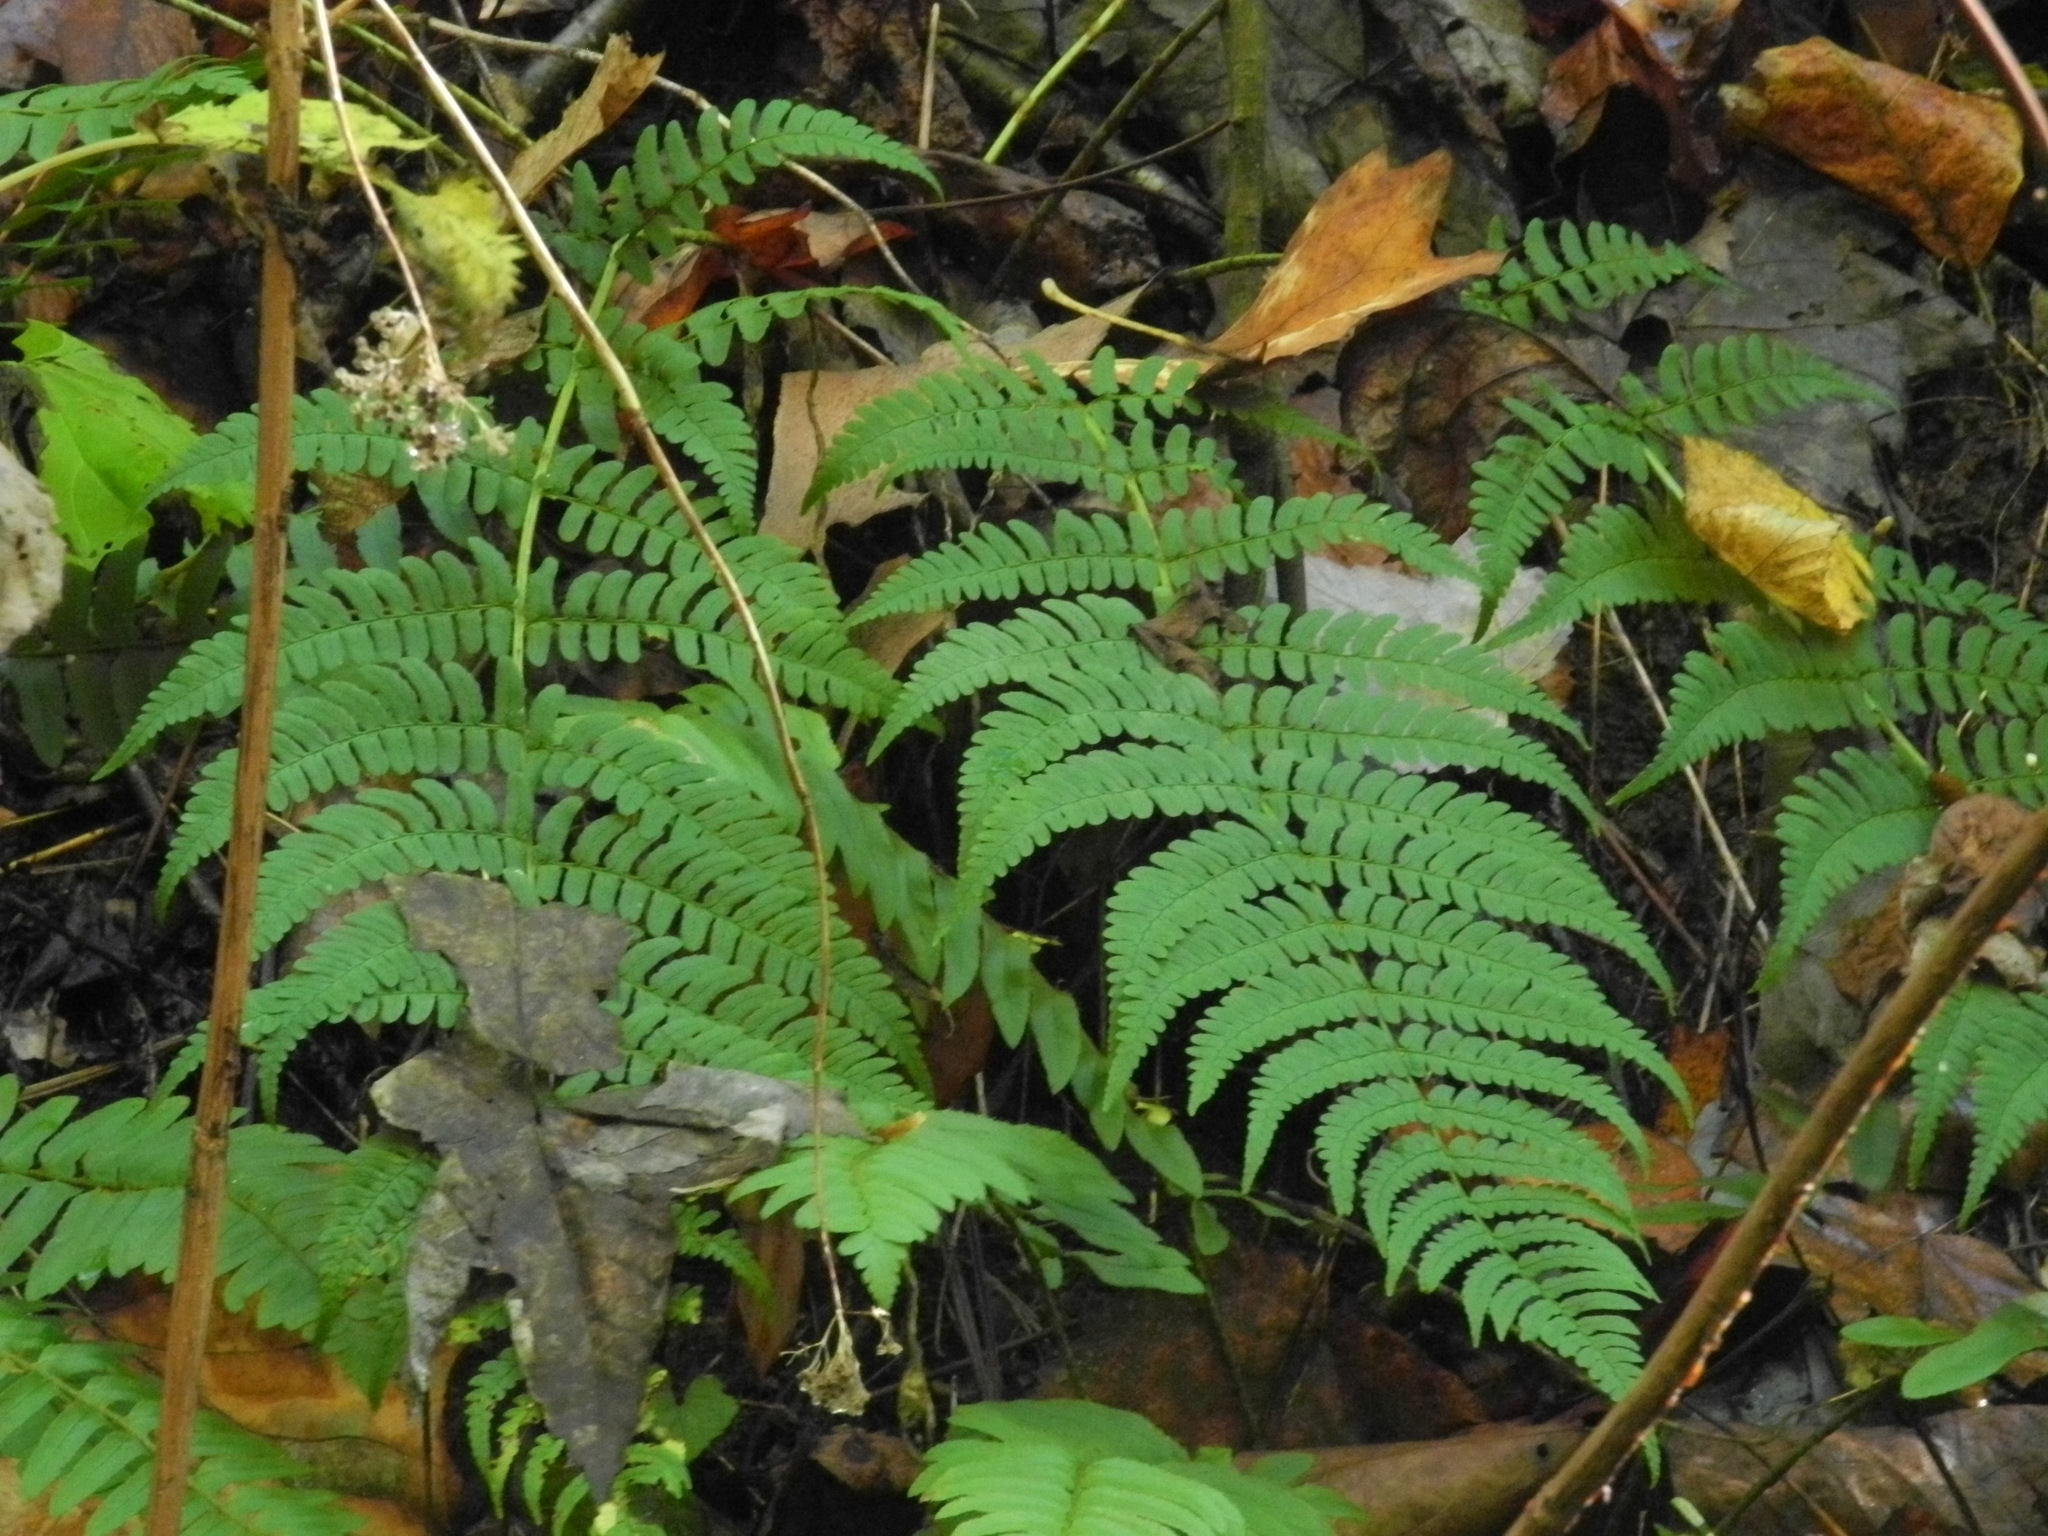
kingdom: Plantae
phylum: Tracheophyta
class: Polypodiopsida
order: Polypodiales
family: Dryopteridaceae
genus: Dryopteris
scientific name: Dryopteris marginalis
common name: Marginal wood fern
